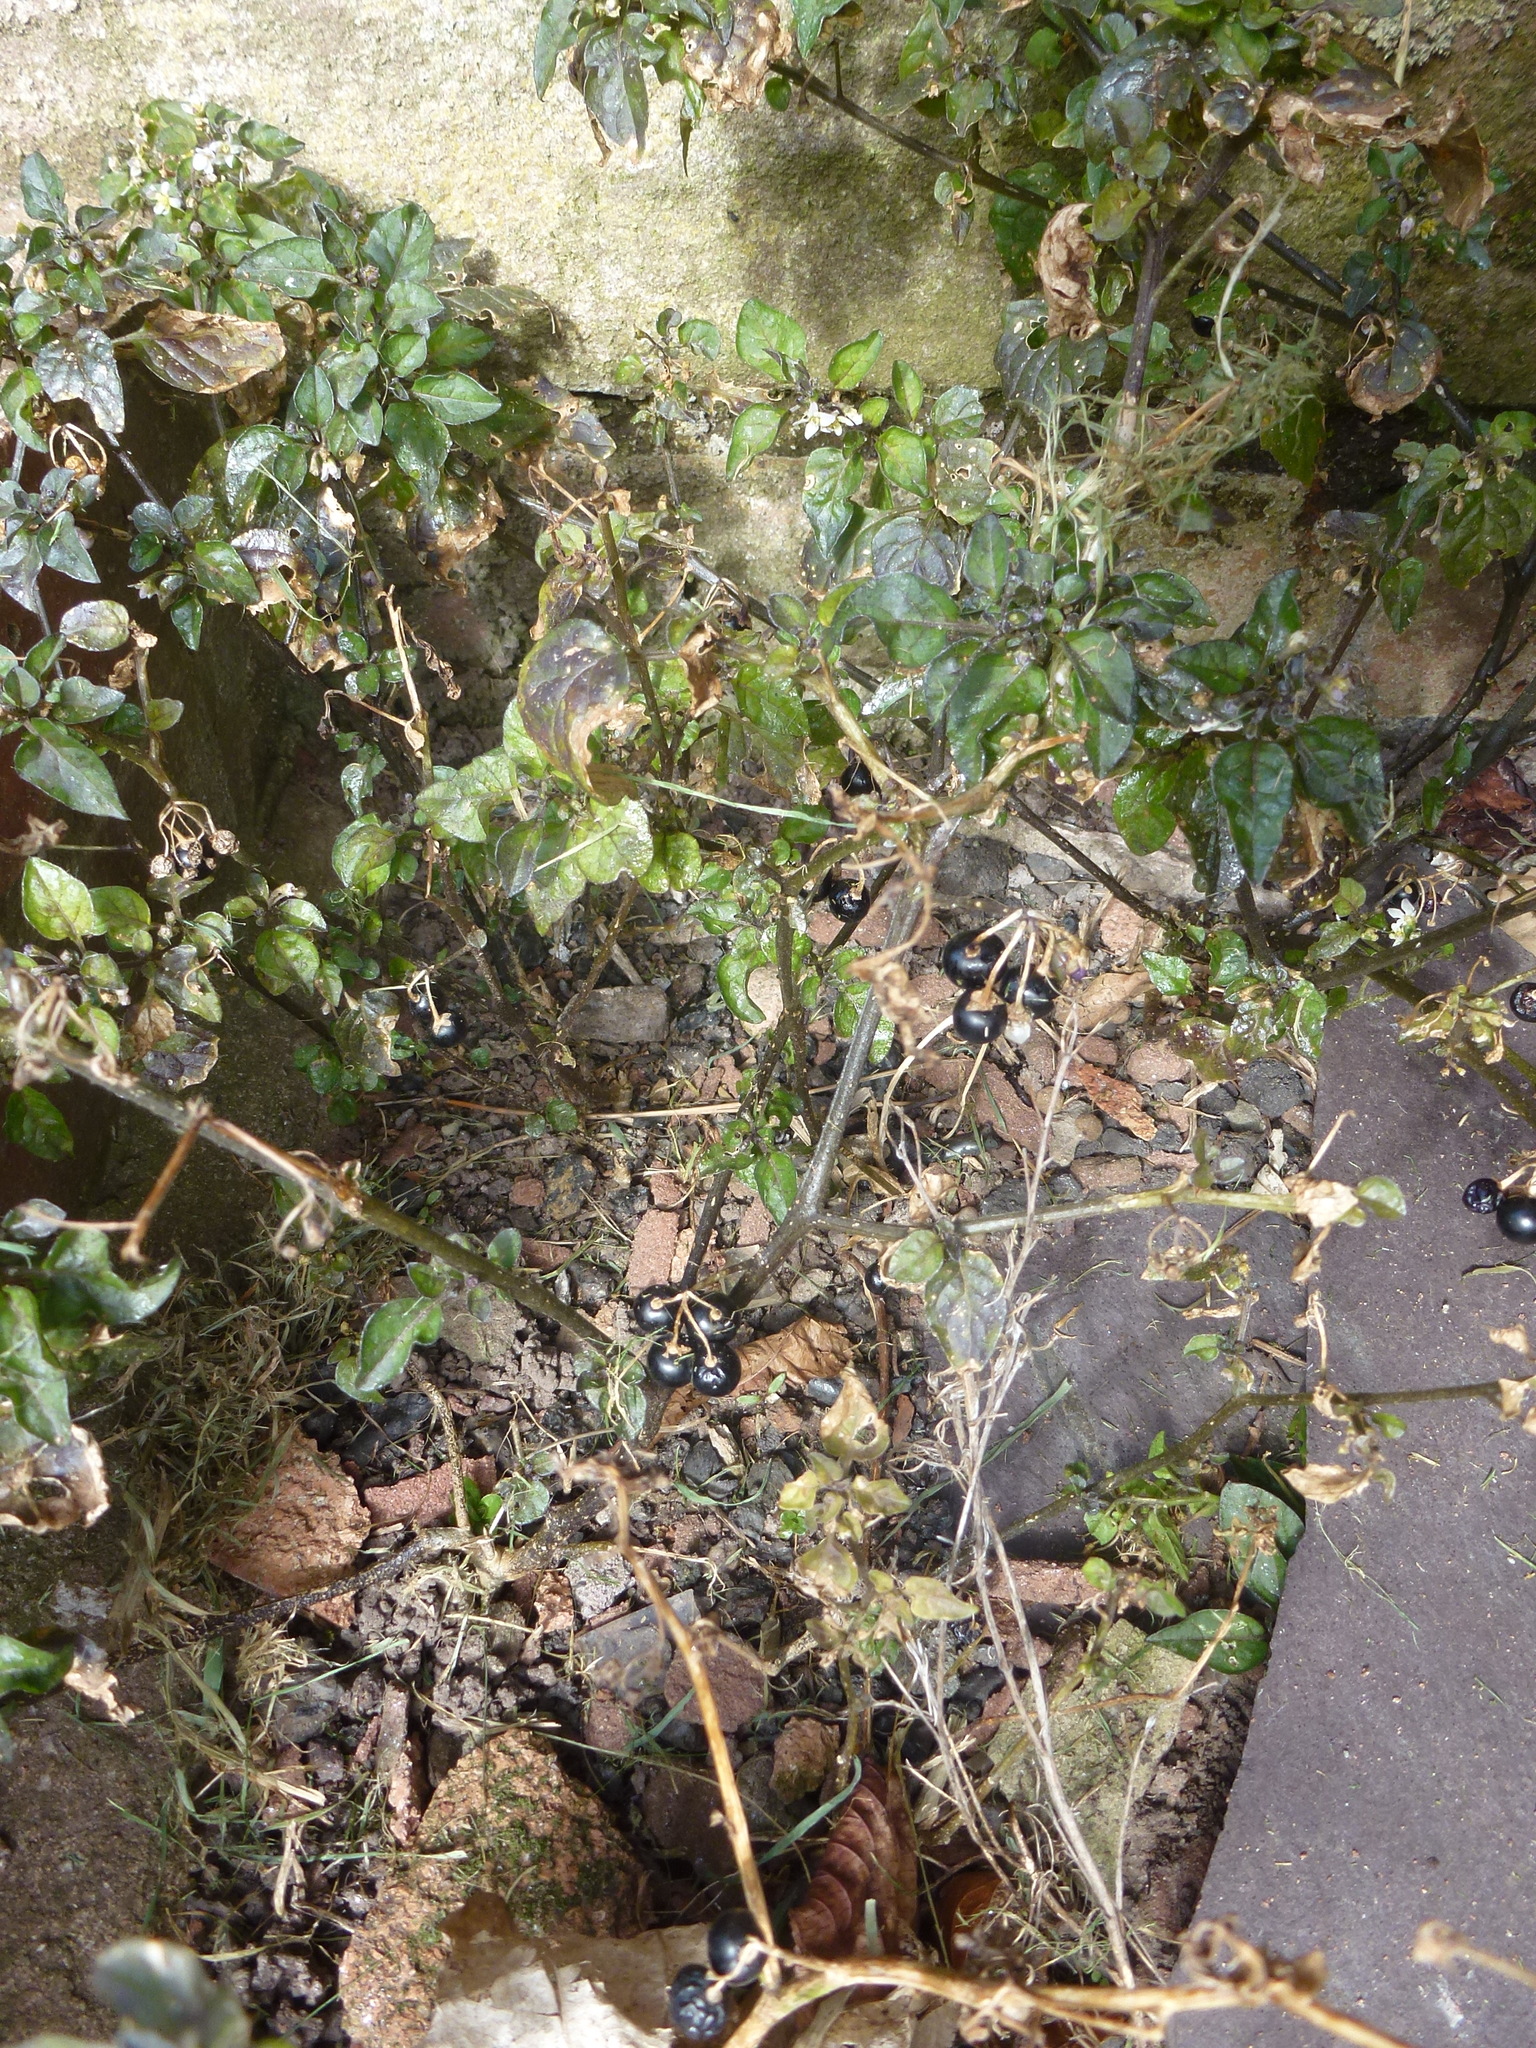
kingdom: Plantae
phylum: Tracheophyta
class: Magnoliopsida
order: Solanales
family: Solanaceae
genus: Solanum
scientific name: Solanum nigrum
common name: Black nightshade
